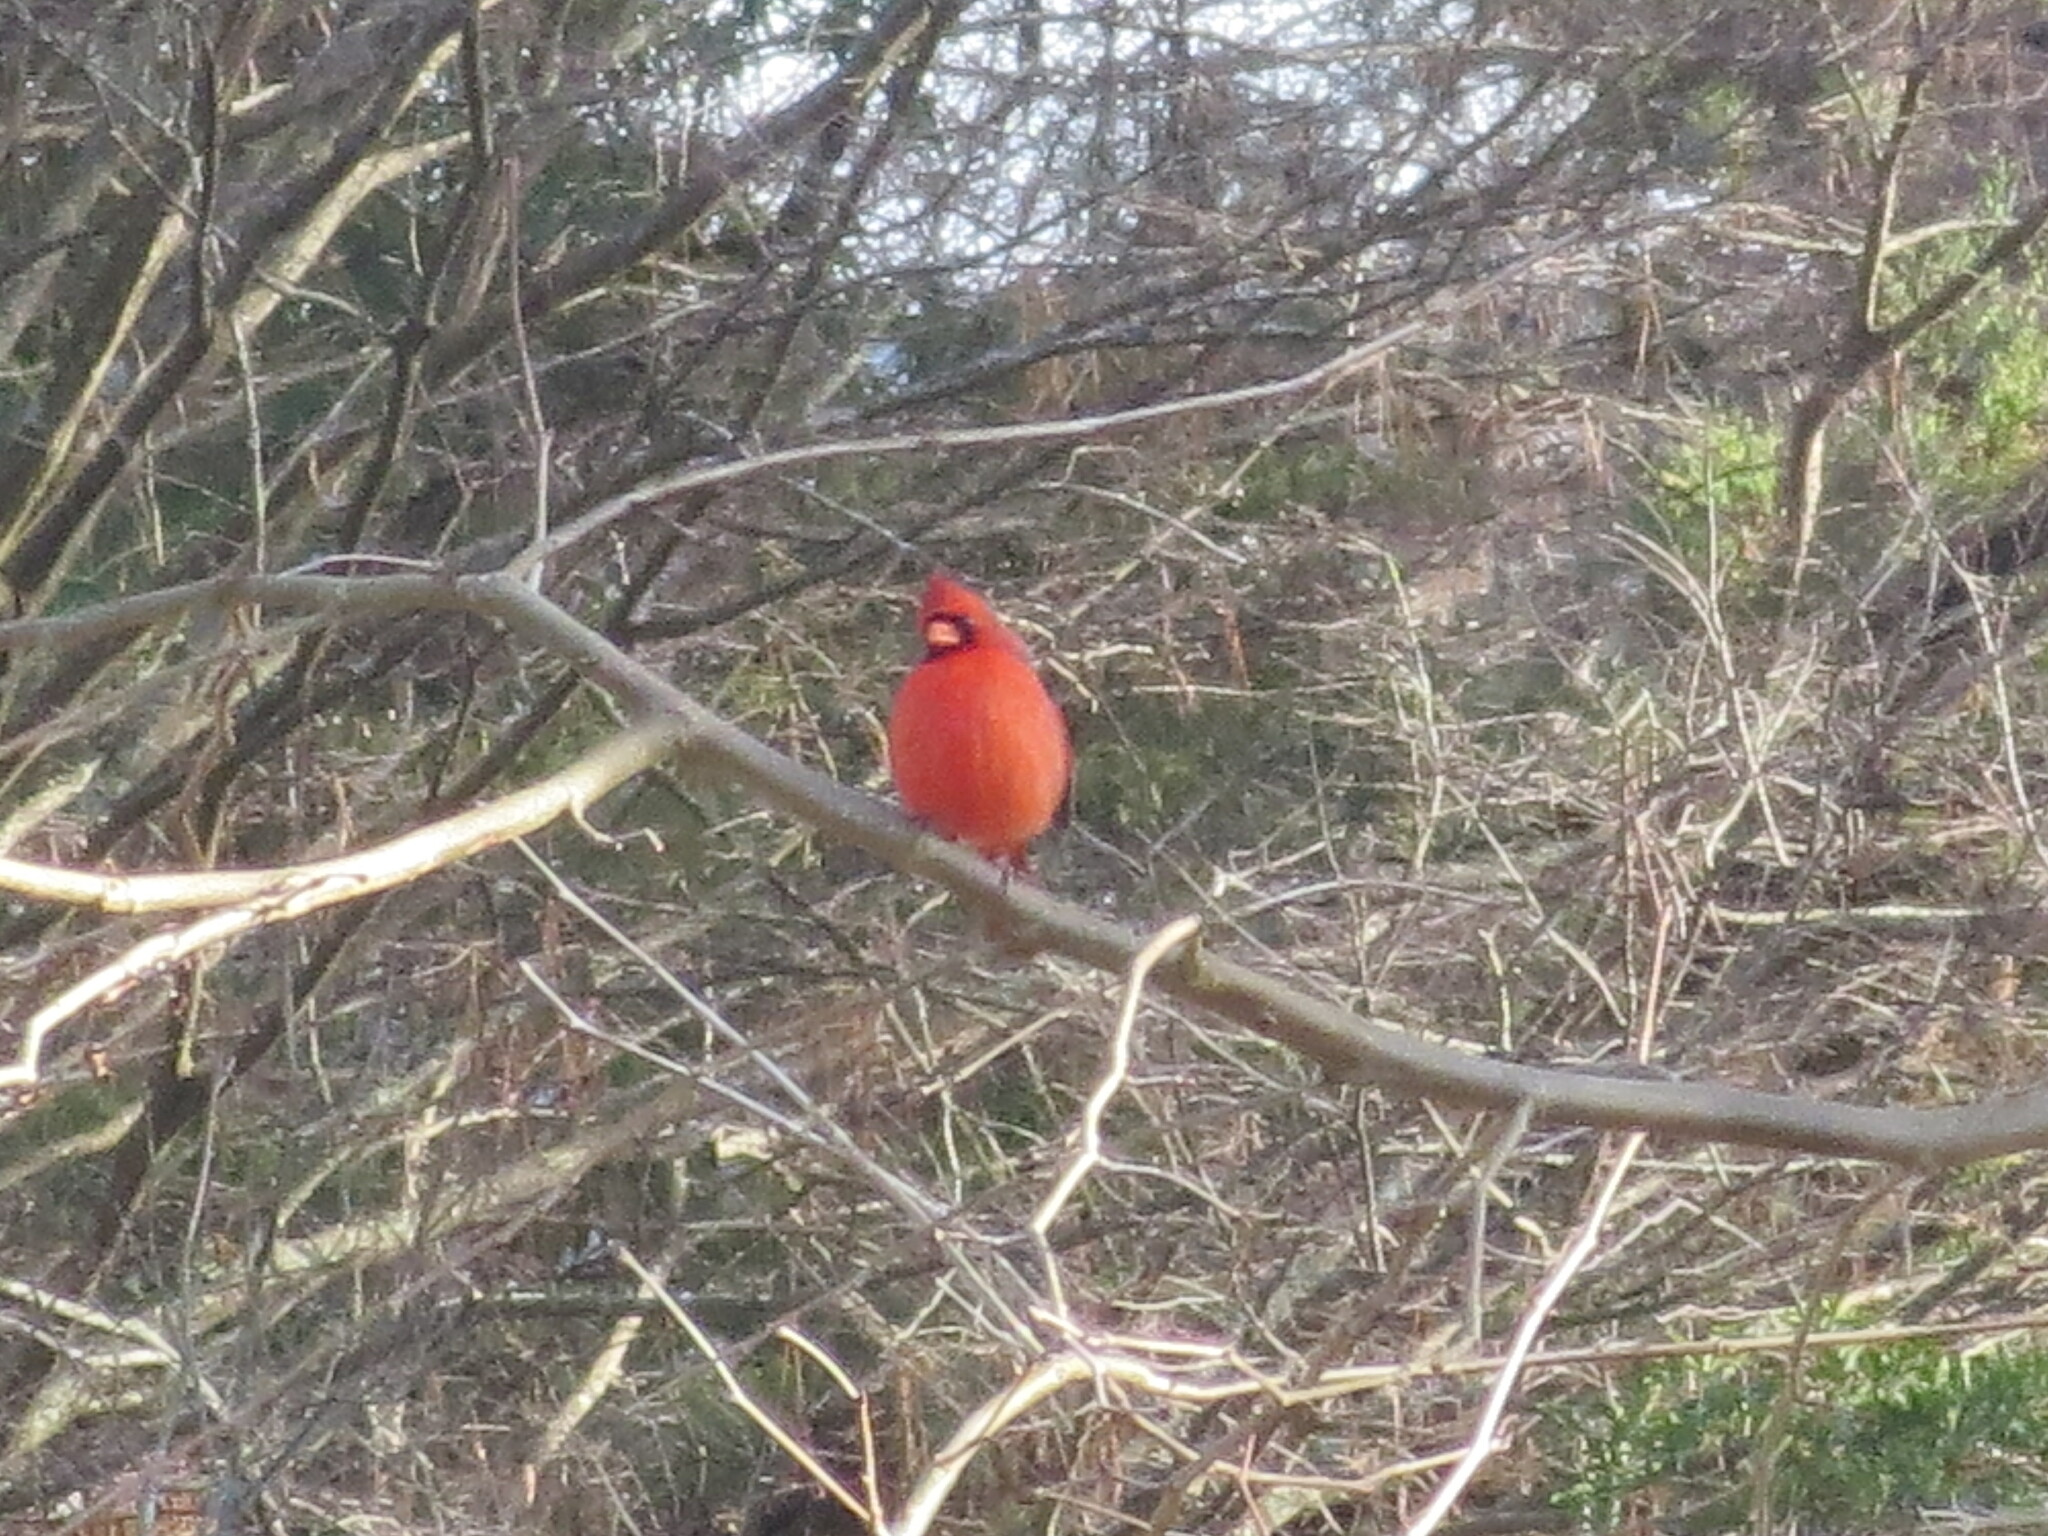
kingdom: Animalia
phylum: Chordata
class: Aves
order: Passeriformes
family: Cardinalidae
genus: Cardinalis
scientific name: Cardinalis cardinalis
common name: Northern cardinal
